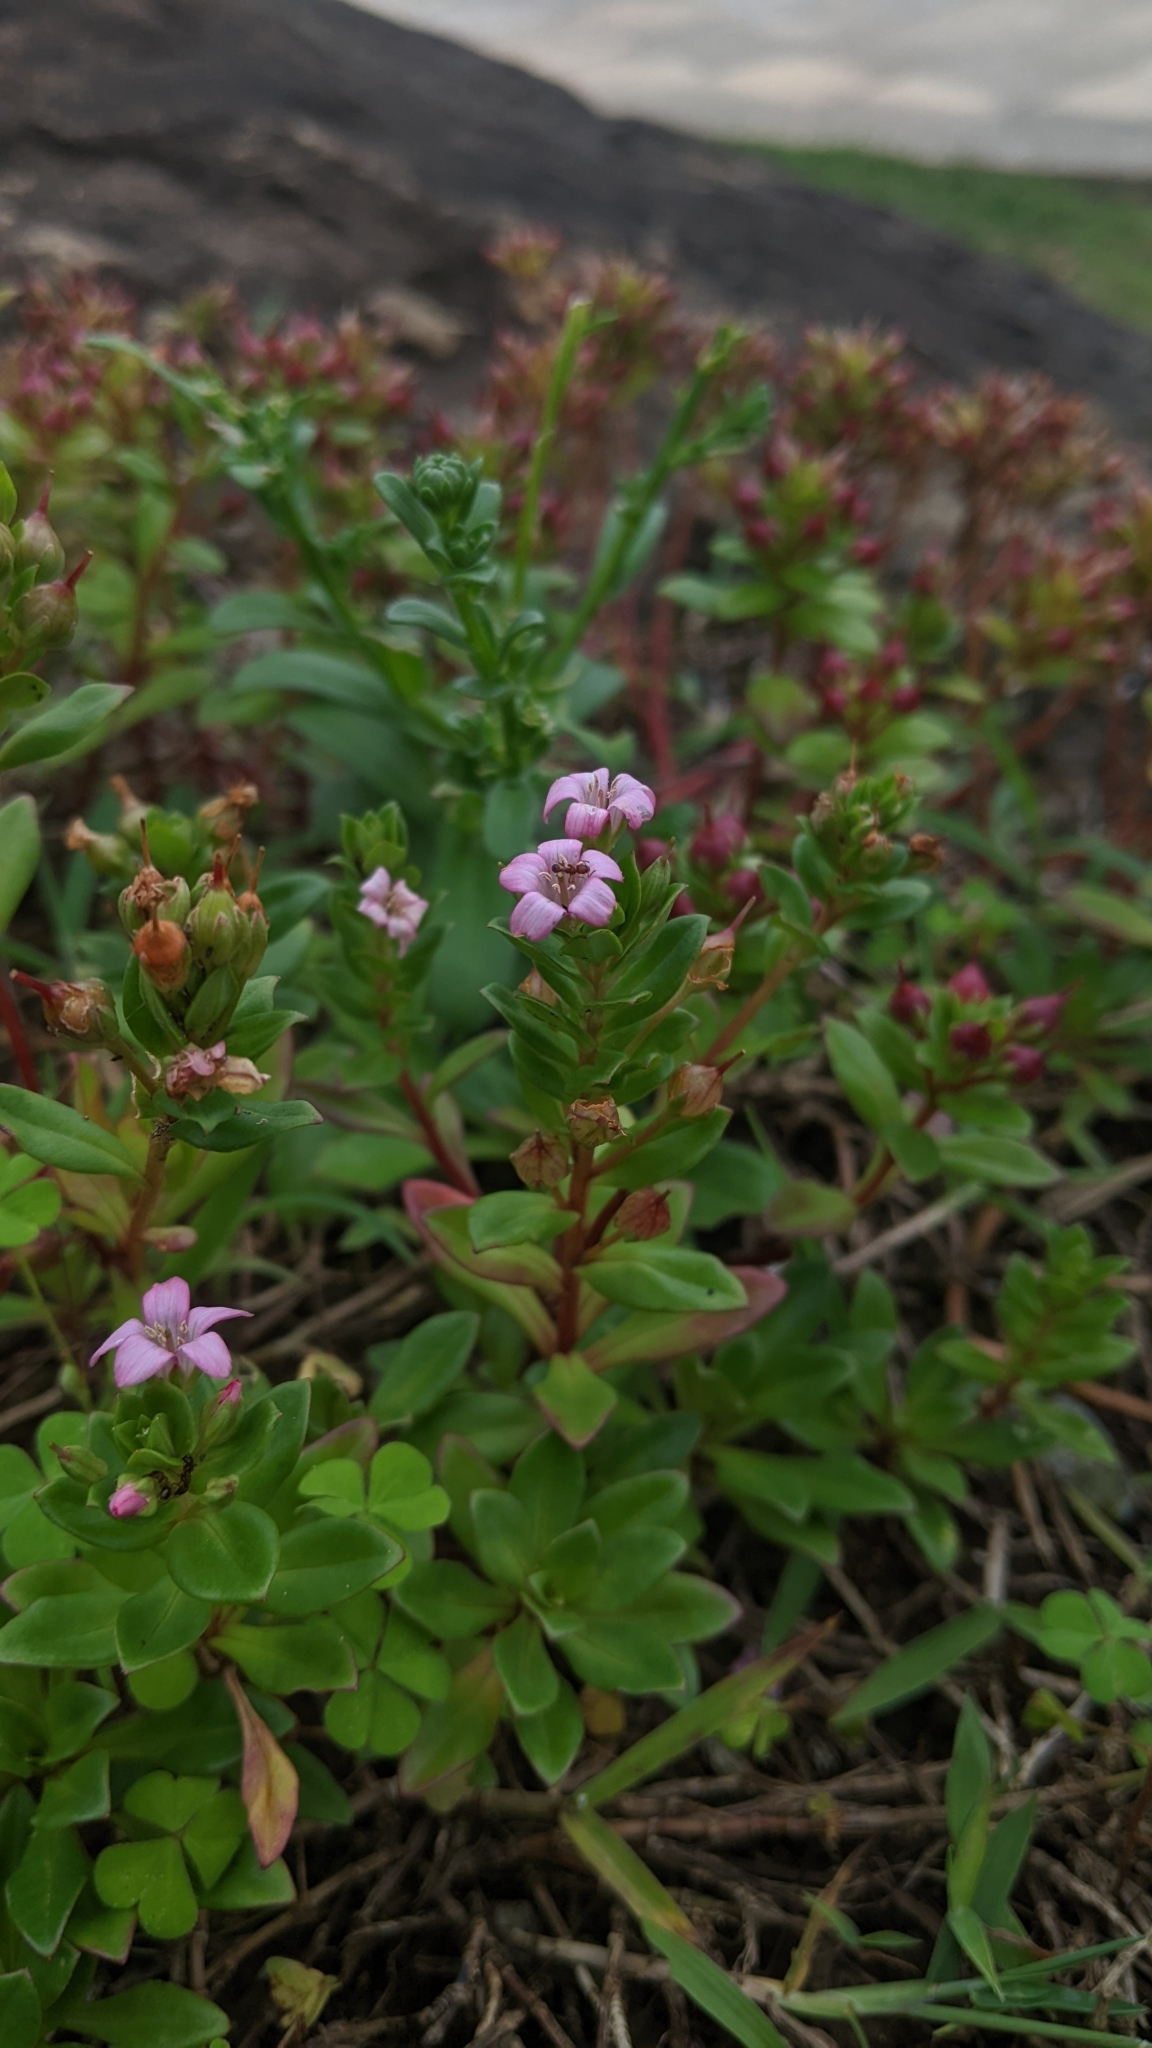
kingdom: Plantae
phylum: Tracheophyta
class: Magnoliopsida
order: Ericales
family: Primulaceae
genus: Lysimachia
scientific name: Lysimachia mauritiana
